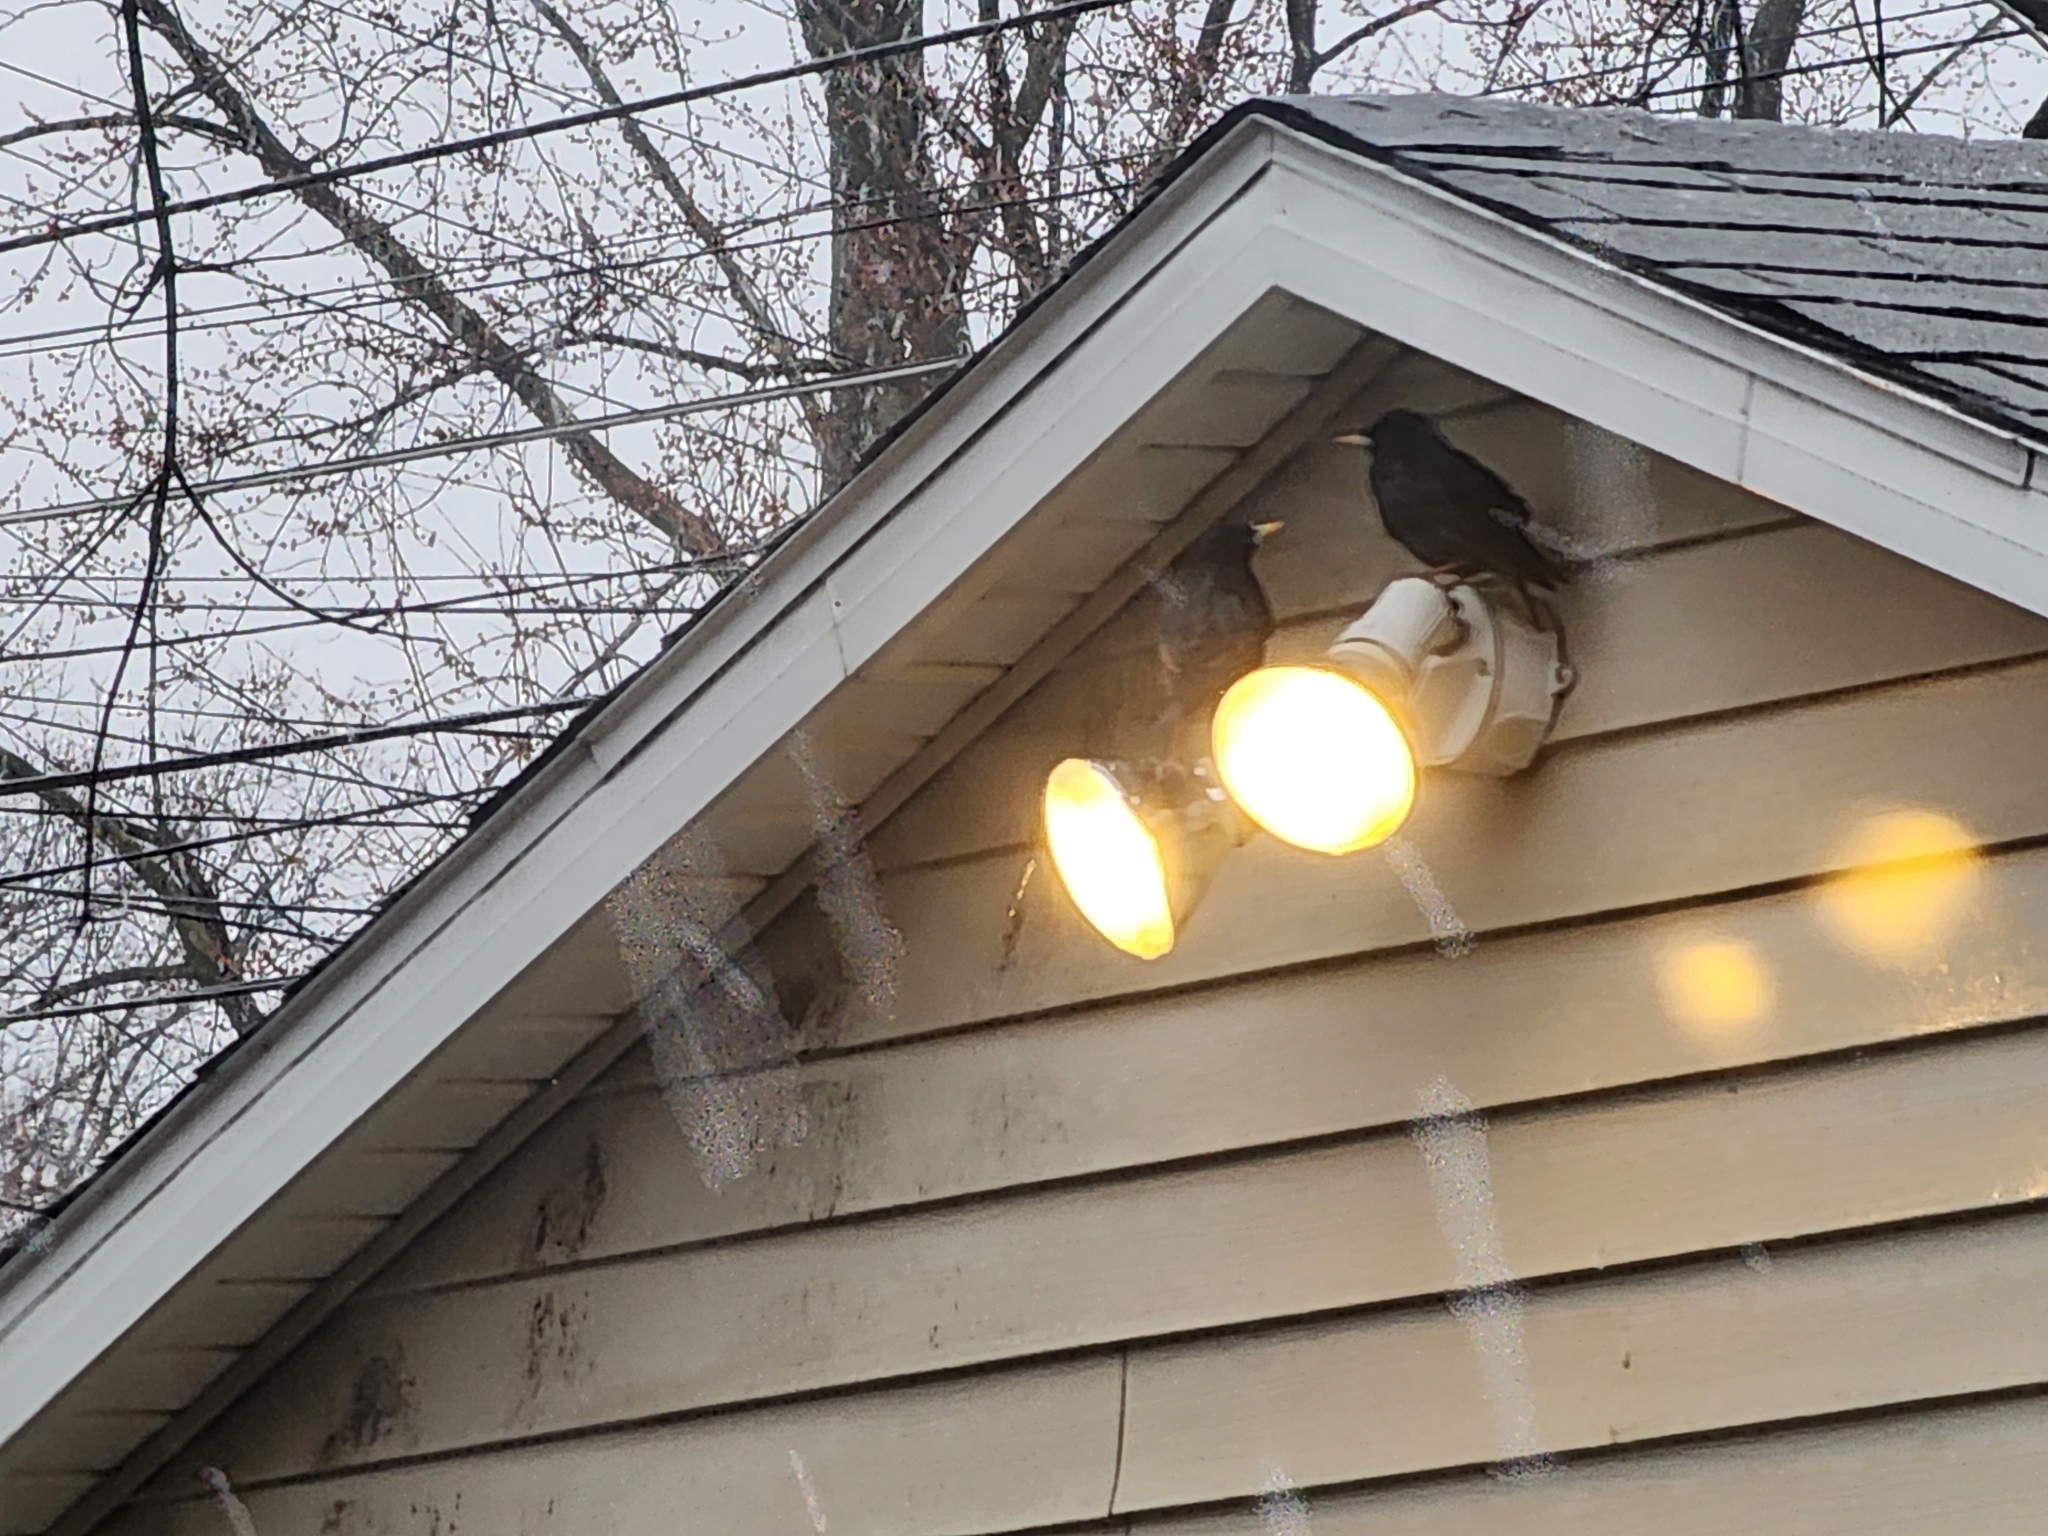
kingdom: Animalia
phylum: Chordata
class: Aves
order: Passeriformes
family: Sturnidae
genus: Sturnus
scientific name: Sturnus vulgaris
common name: Common starling
